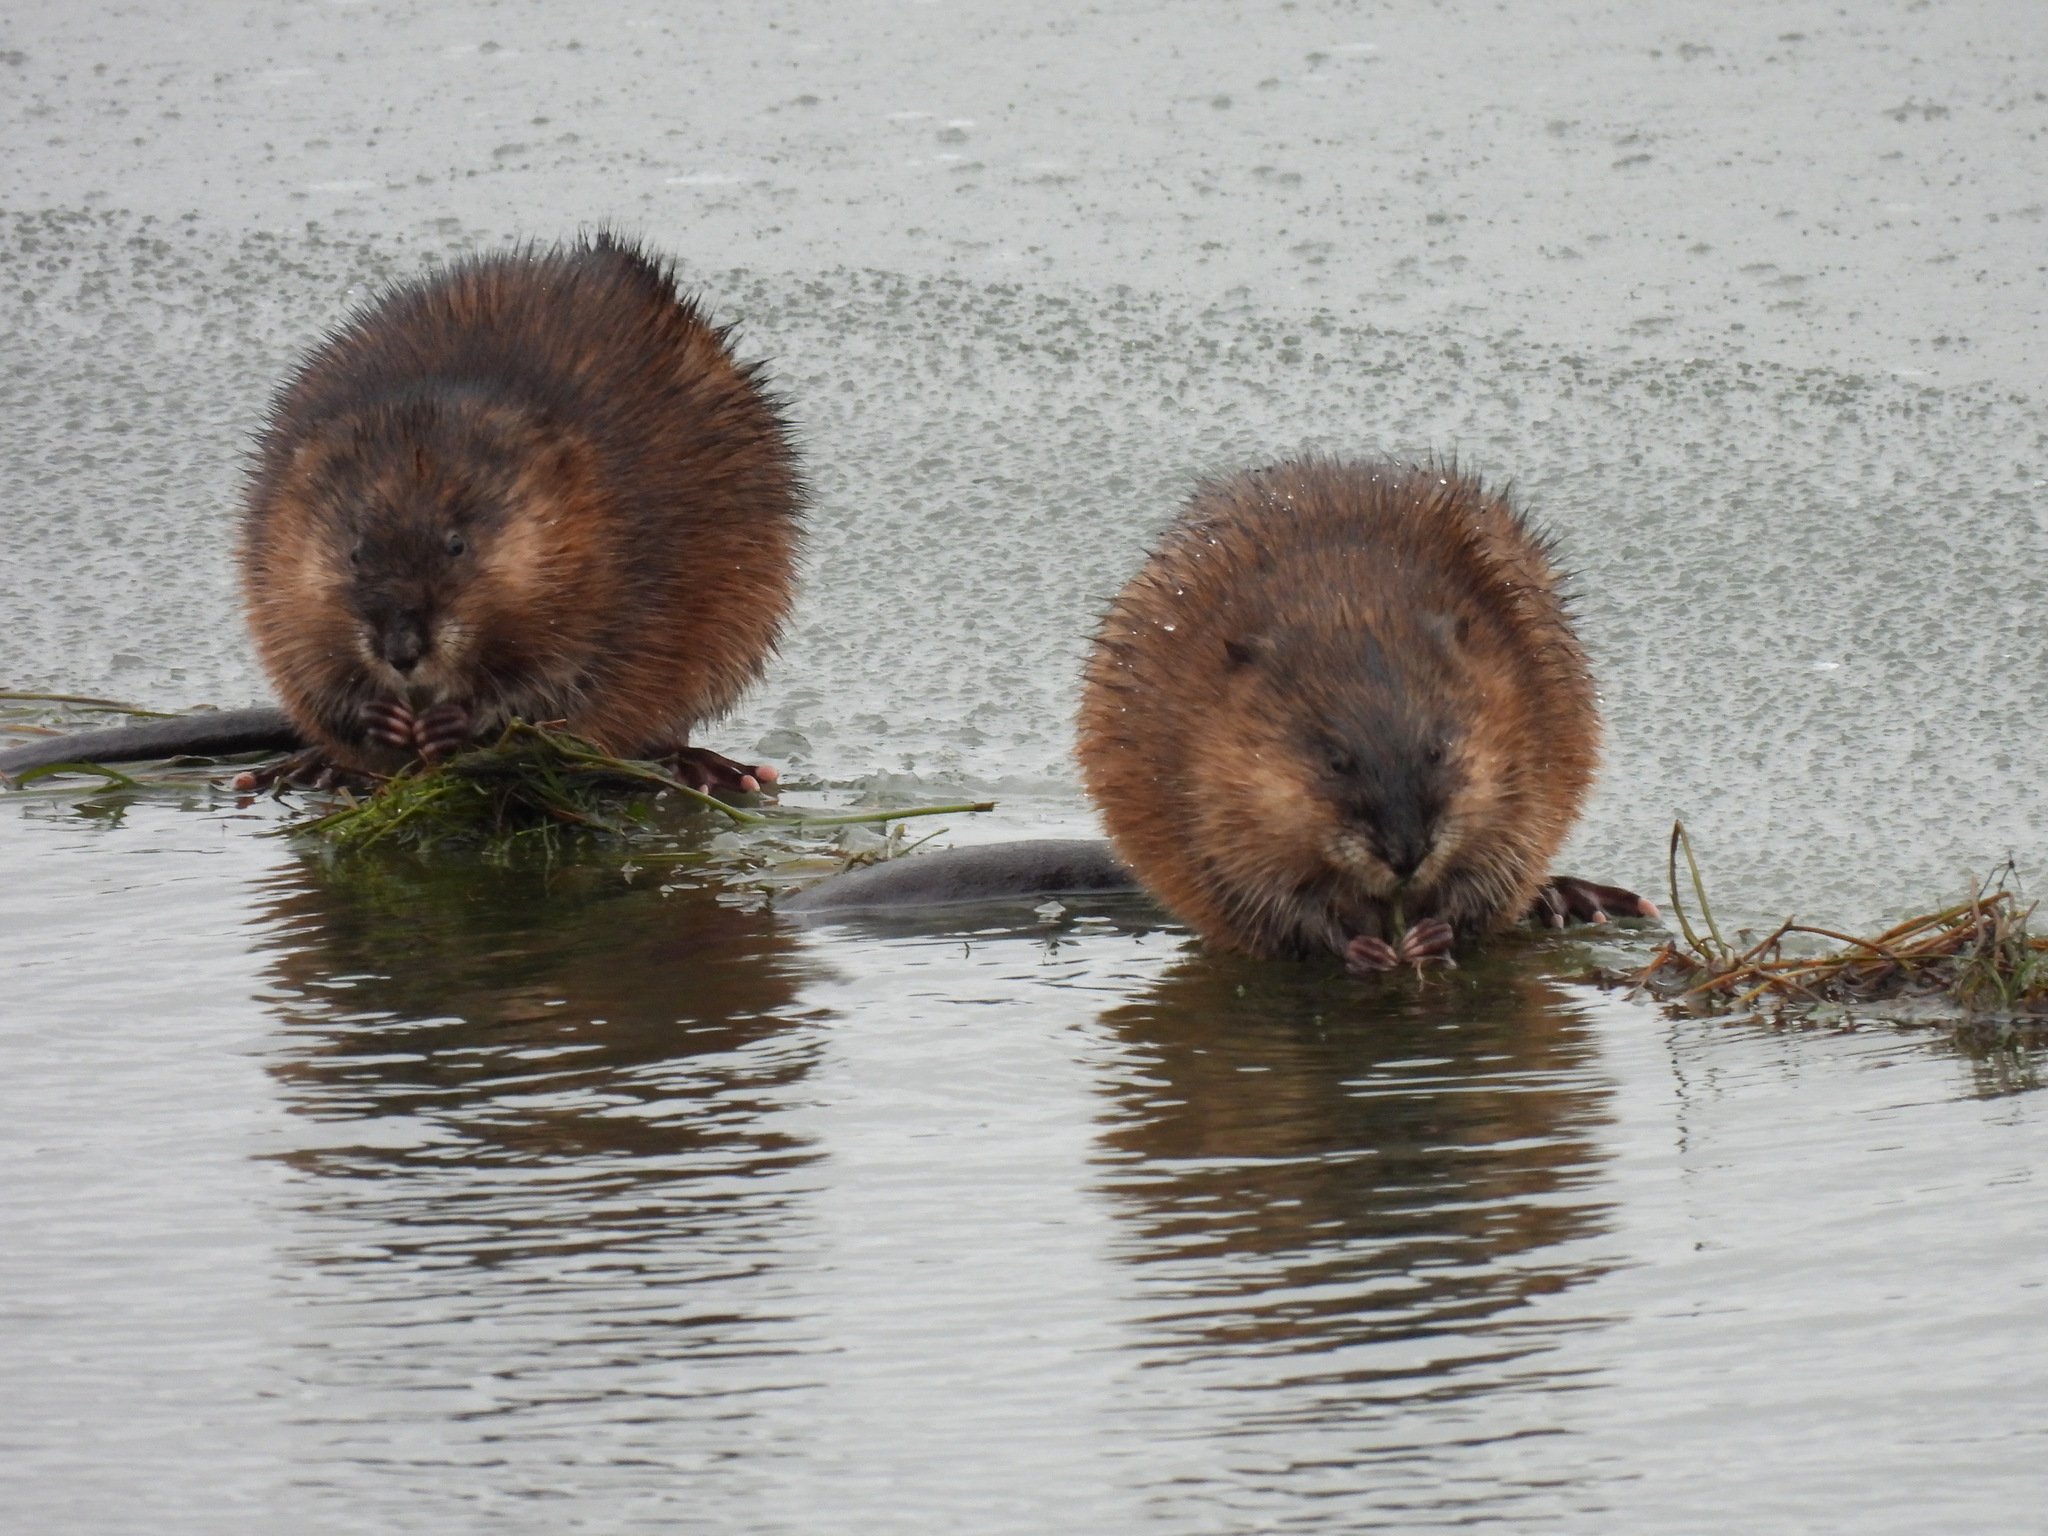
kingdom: Animalia
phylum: Chordata
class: Mammalia
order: Rodentia
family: Cricetidae
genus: Ondatra
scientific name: Ondatra zibethicus
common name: Muskrat
